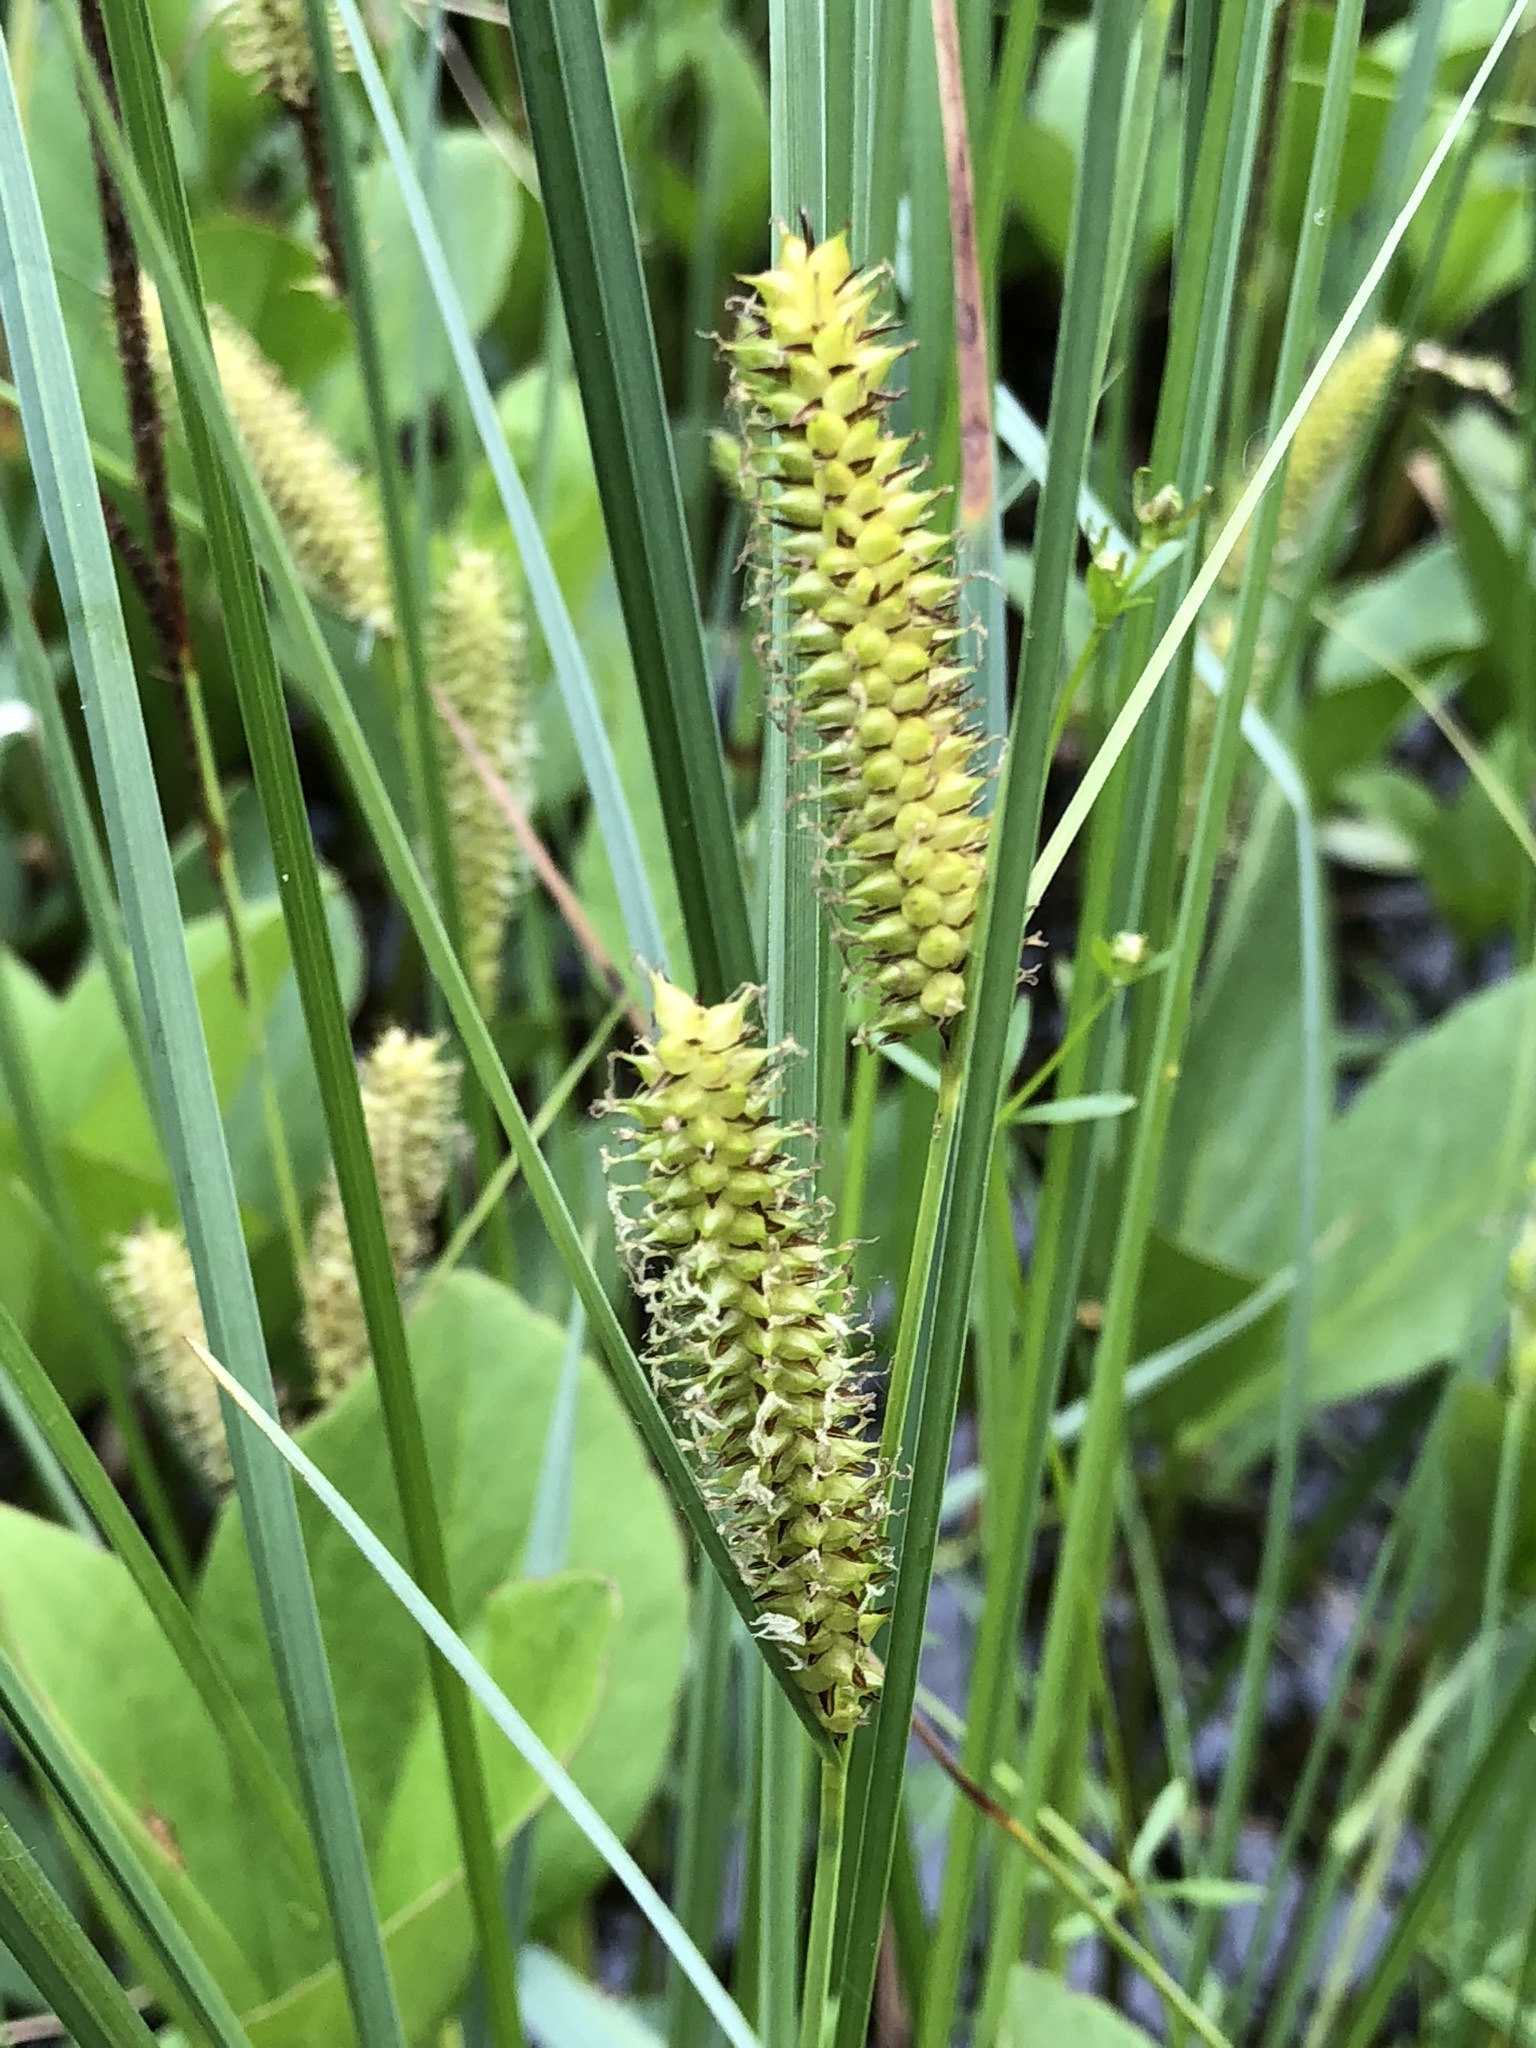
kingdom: Plantae
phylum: Tracheophyta
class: Liliopsida
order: Poales
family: Cyperaceae
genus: Carex
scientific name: Carex rostrata
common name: Bottle sedge
